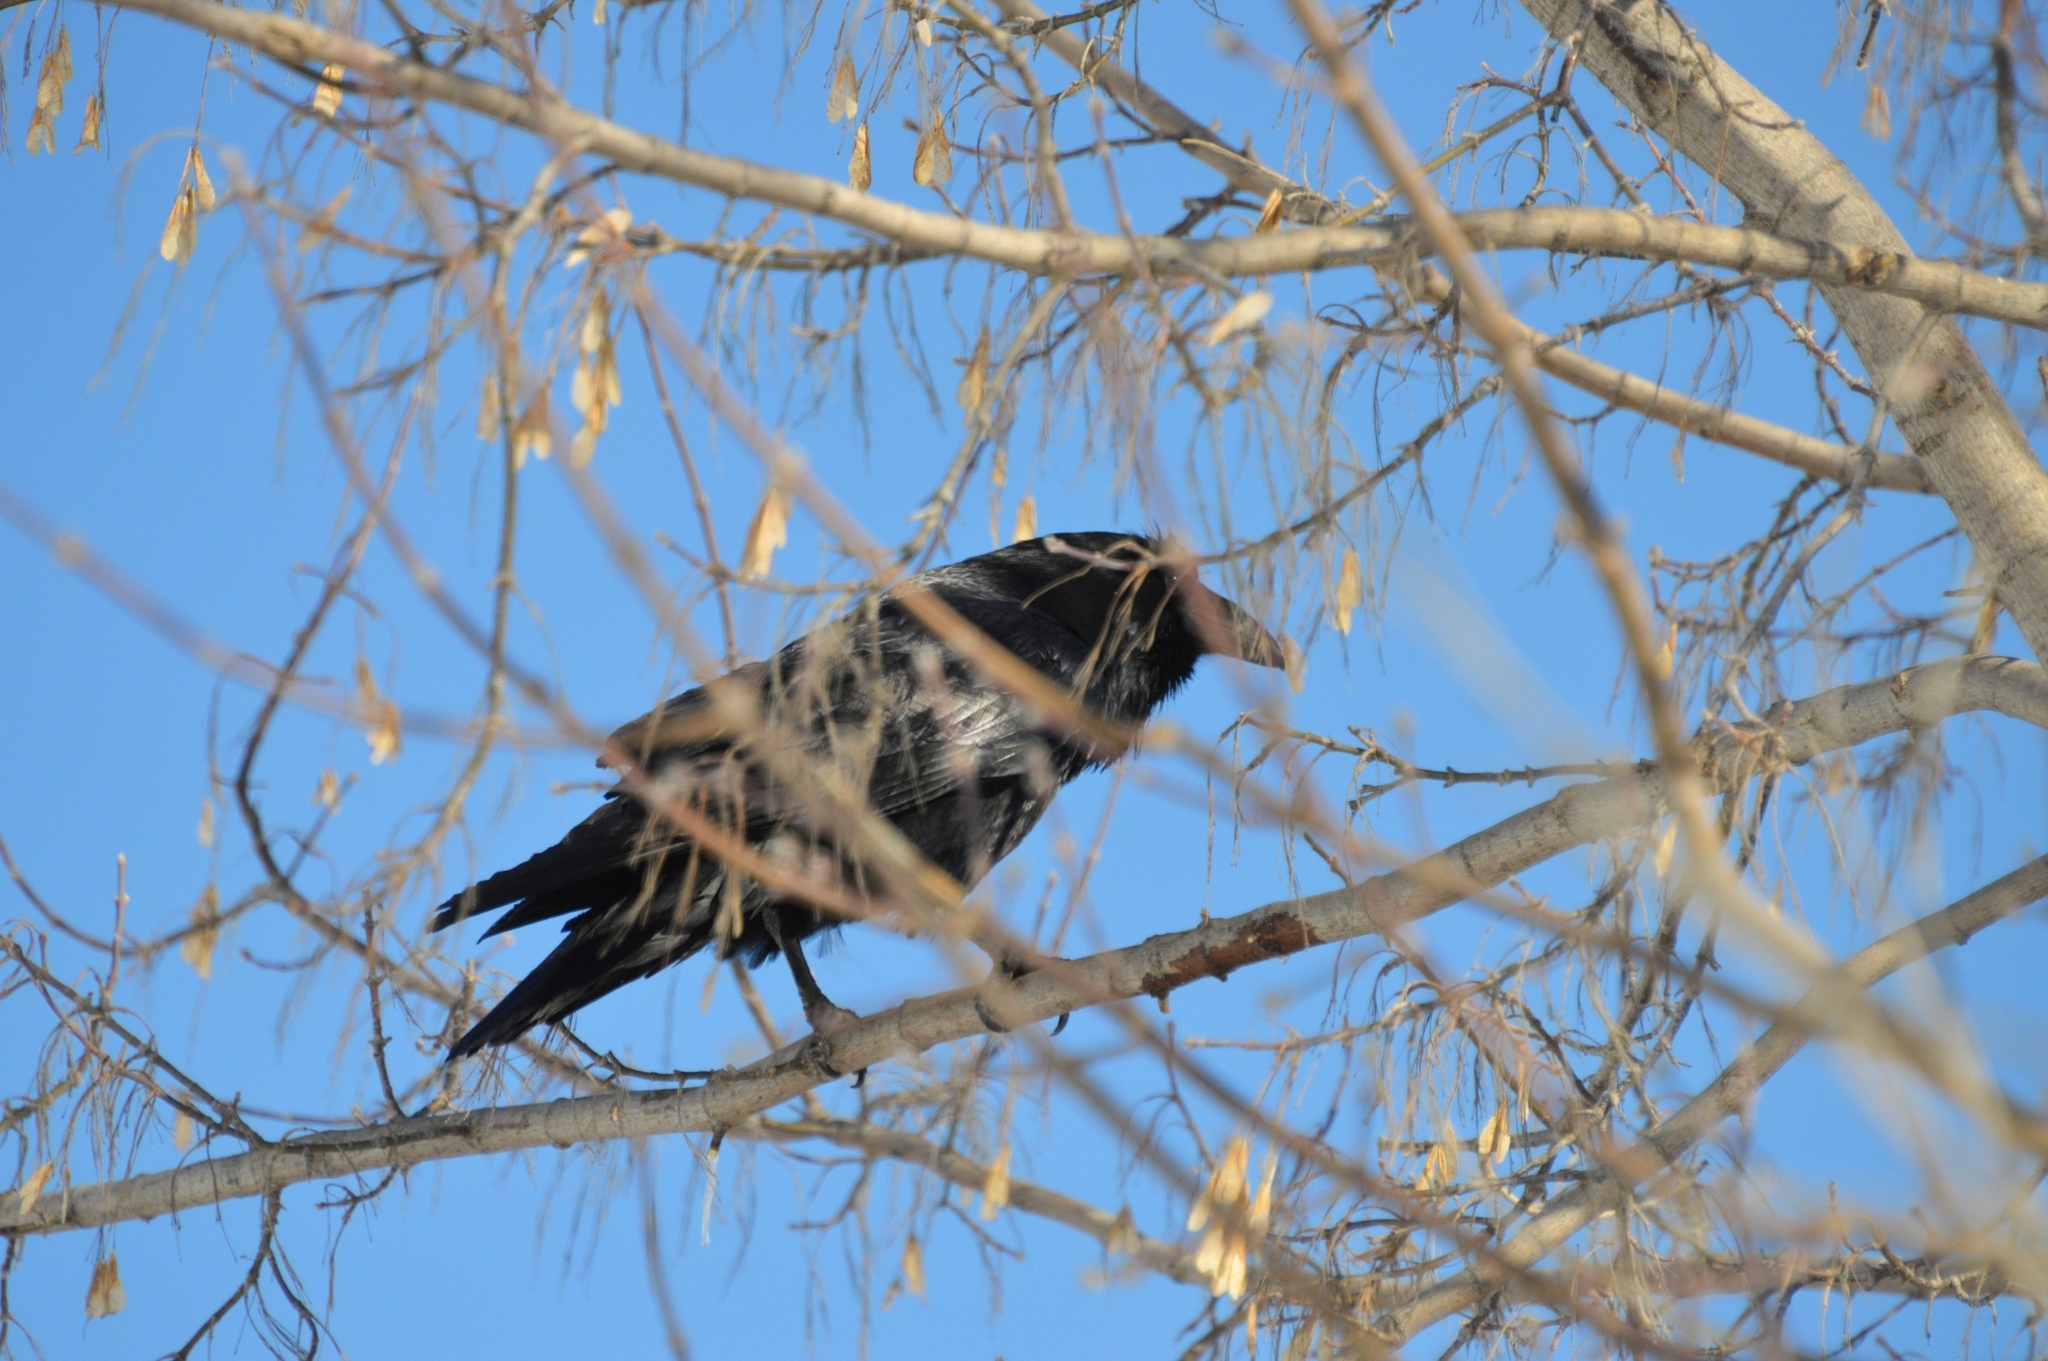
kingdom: Animalia
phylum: Chordata
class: Aves
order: Passeriformes
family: Corvidae
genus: Corvus
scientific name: Corvus corax
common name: Common raven
